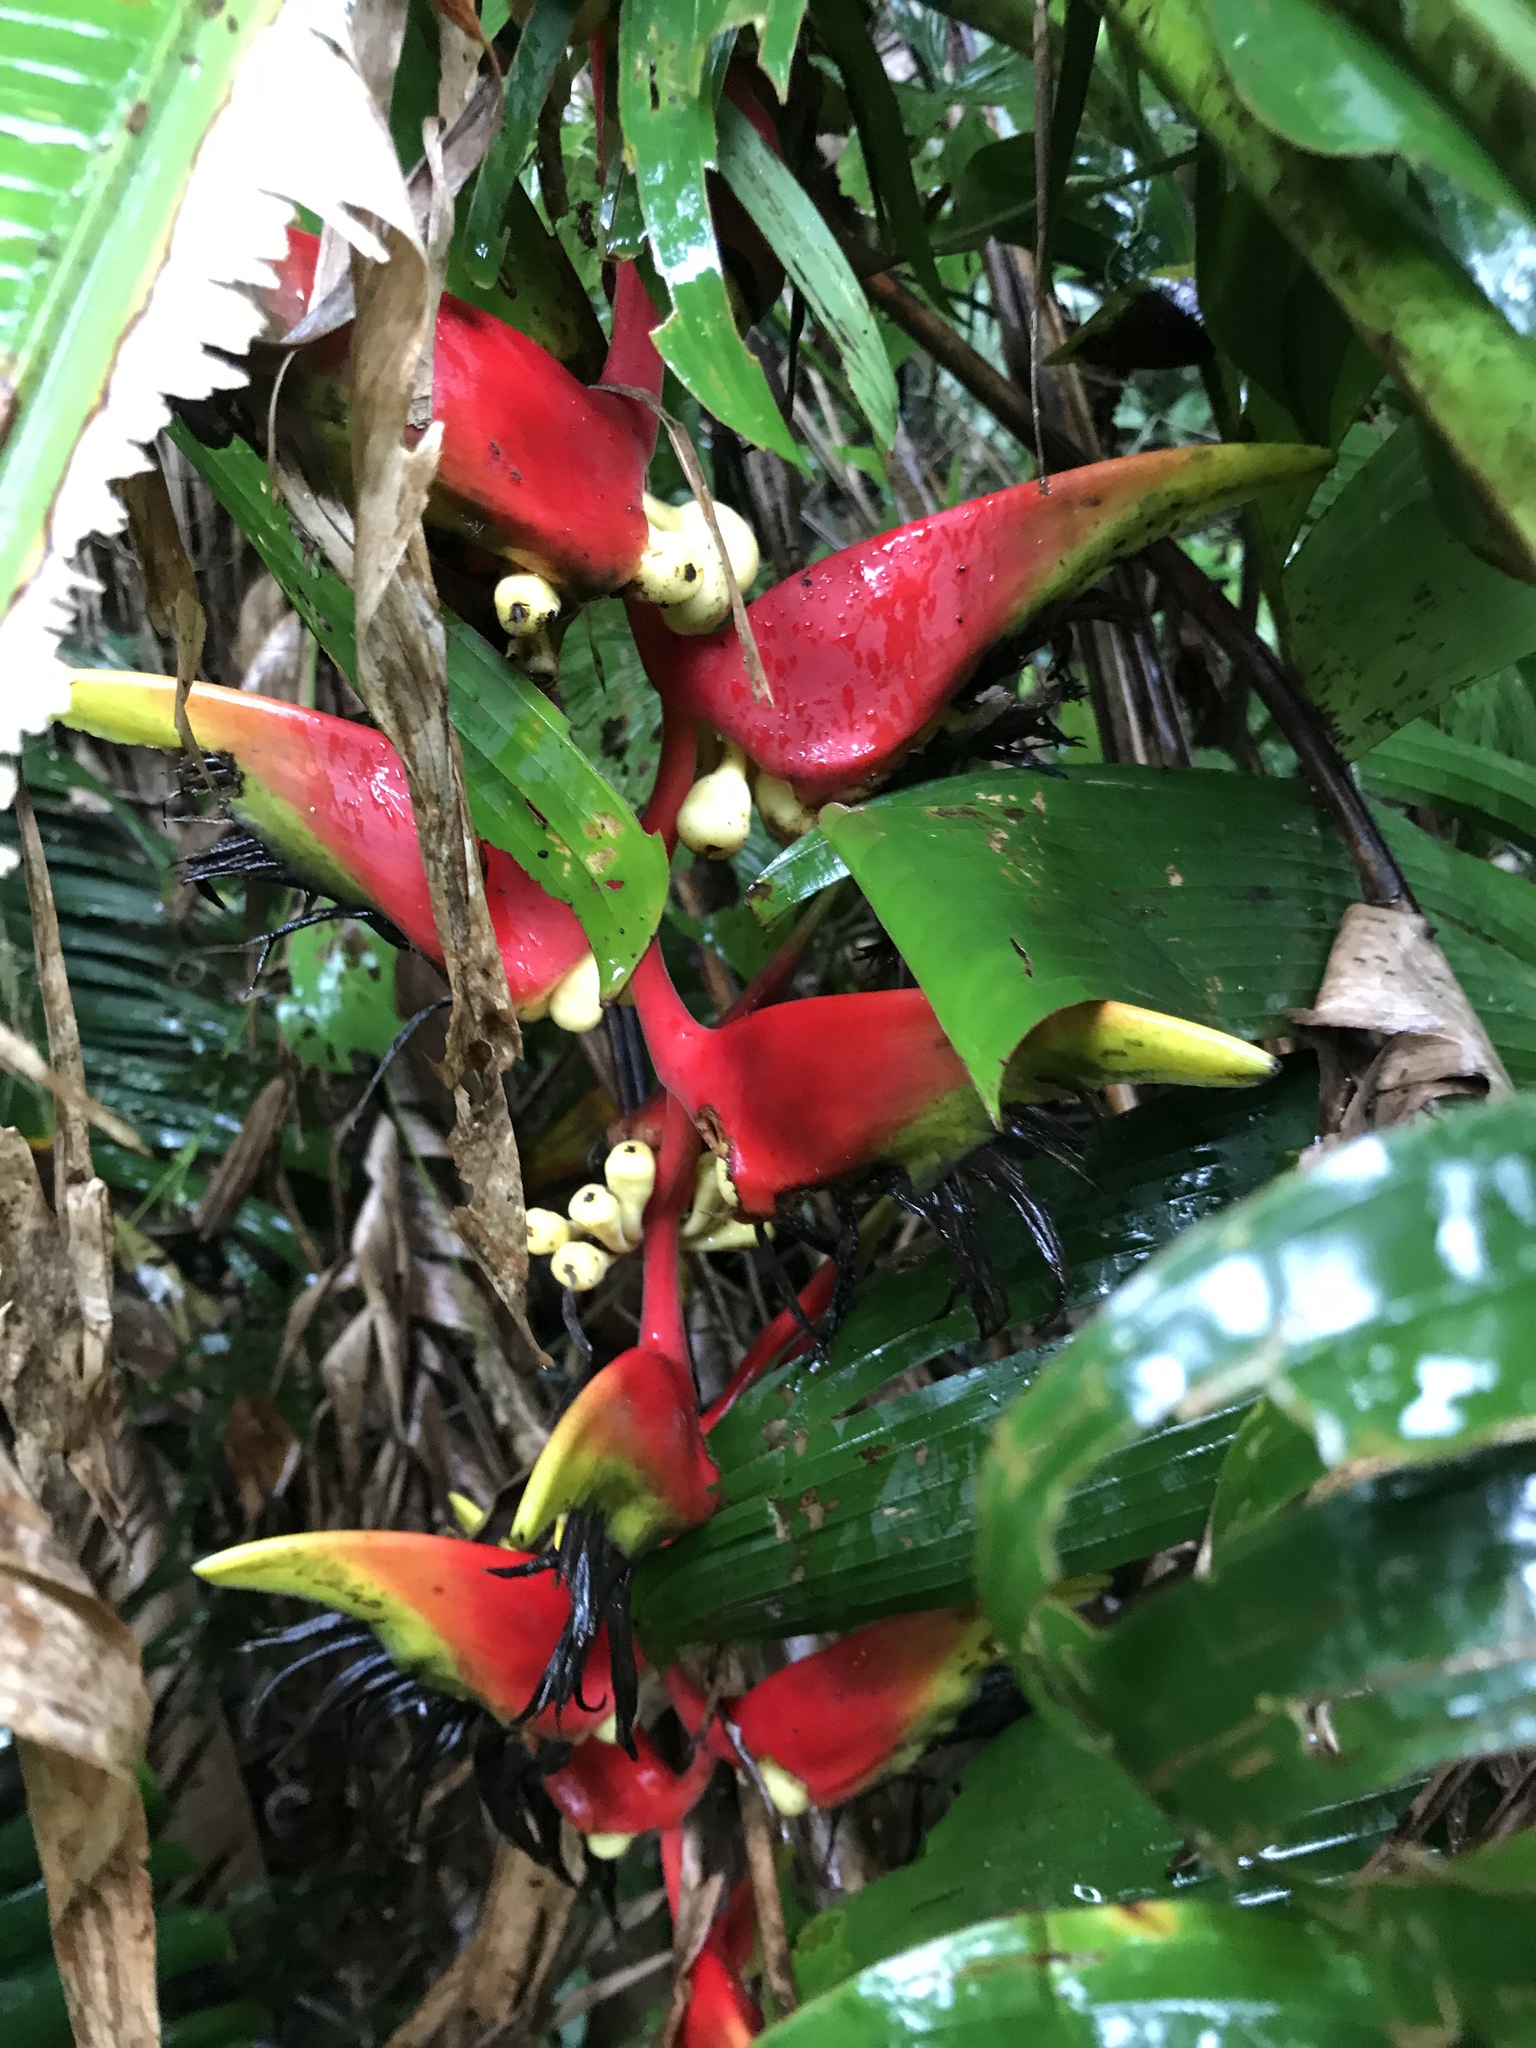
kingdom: Plantae
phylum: Tracheophyta
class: Liliopsida
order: Zingiberales
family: Heliconiaceae
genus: Heliconia
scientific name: Heliconia platystachys
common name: False bird of paradise
